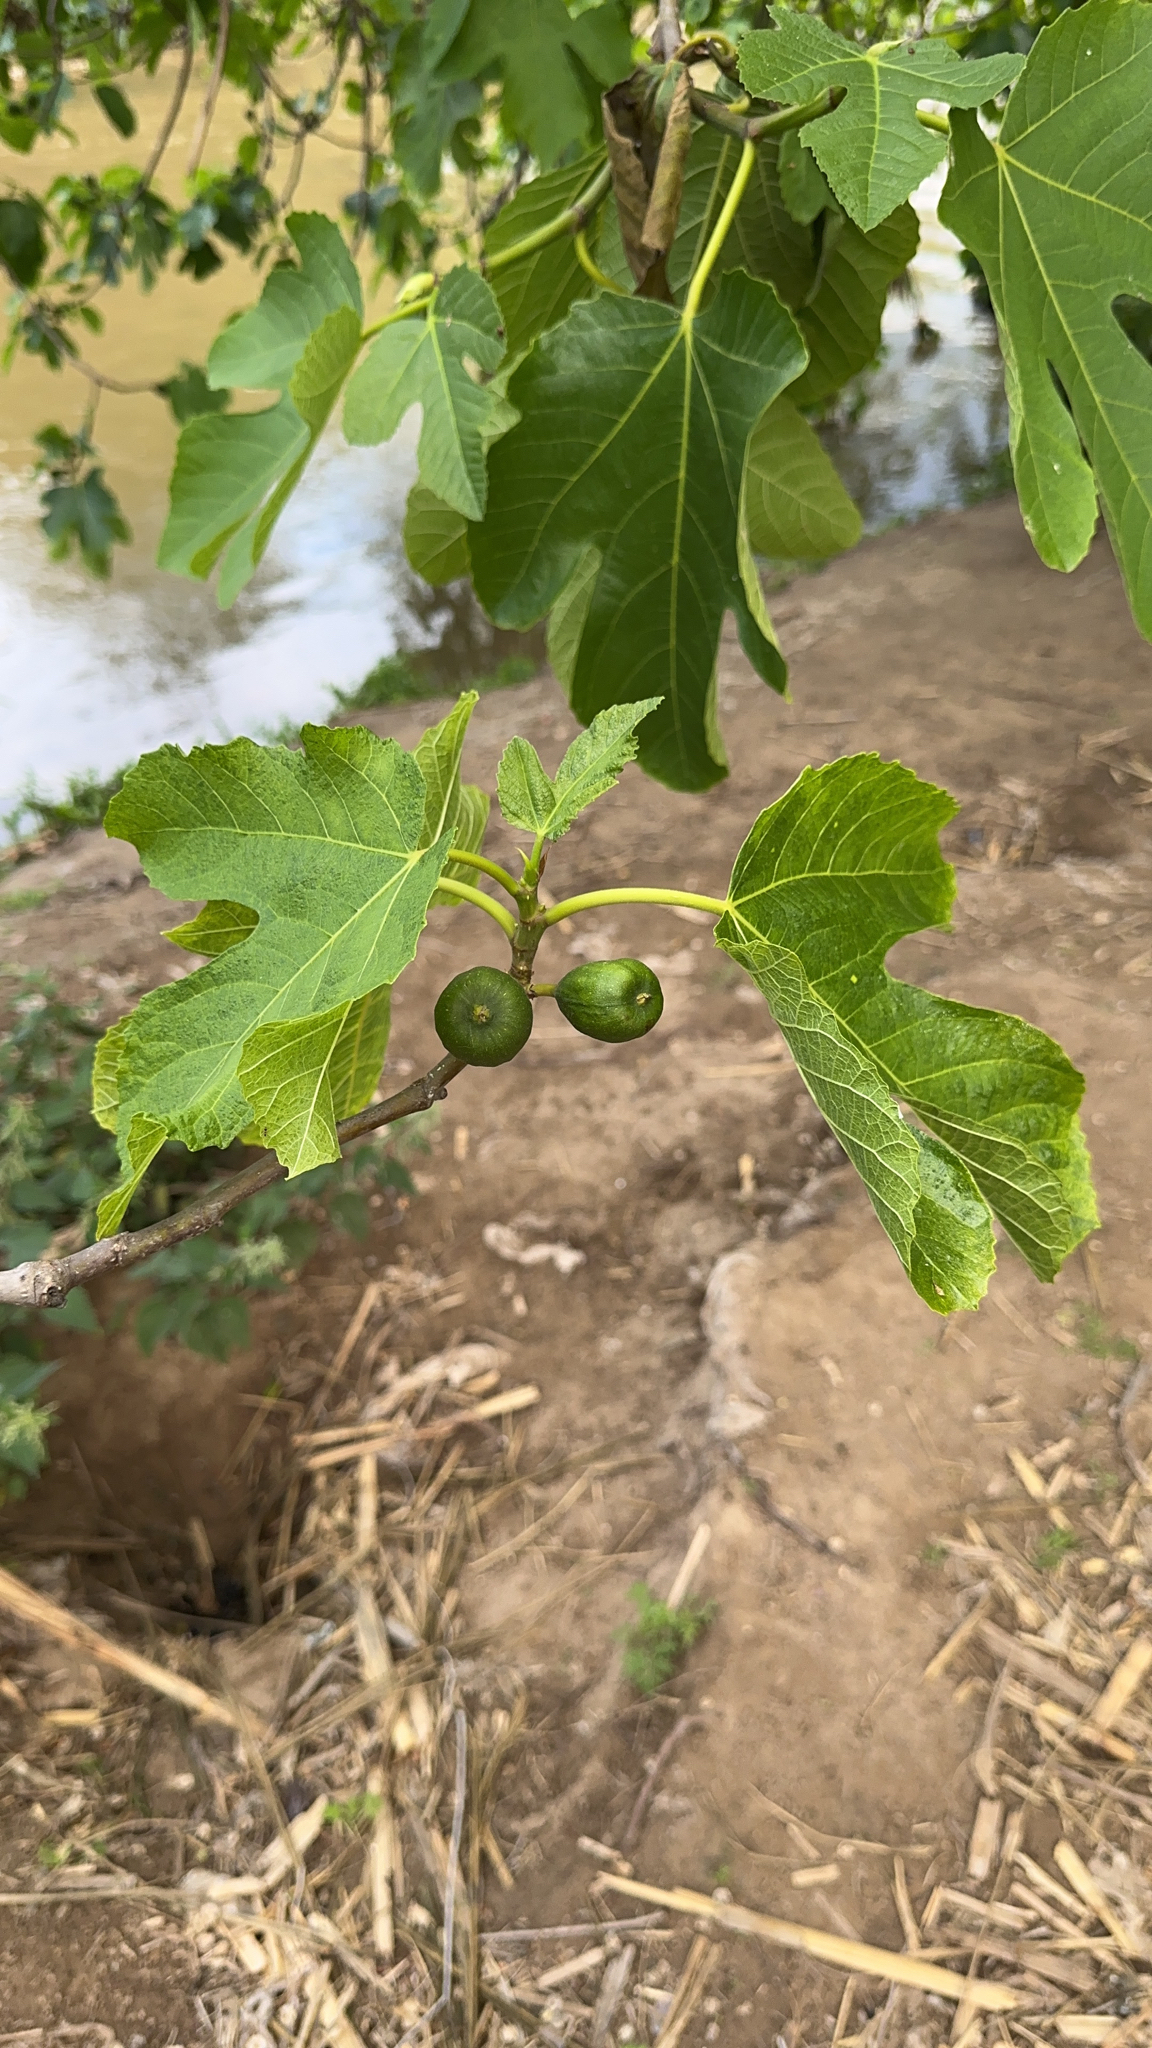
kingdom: Plantae
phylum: Tracheophyta
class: Magnoliopsida
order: Rosales
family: Moraceae
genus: Ficus
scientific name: Ficus carica
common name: Fig
